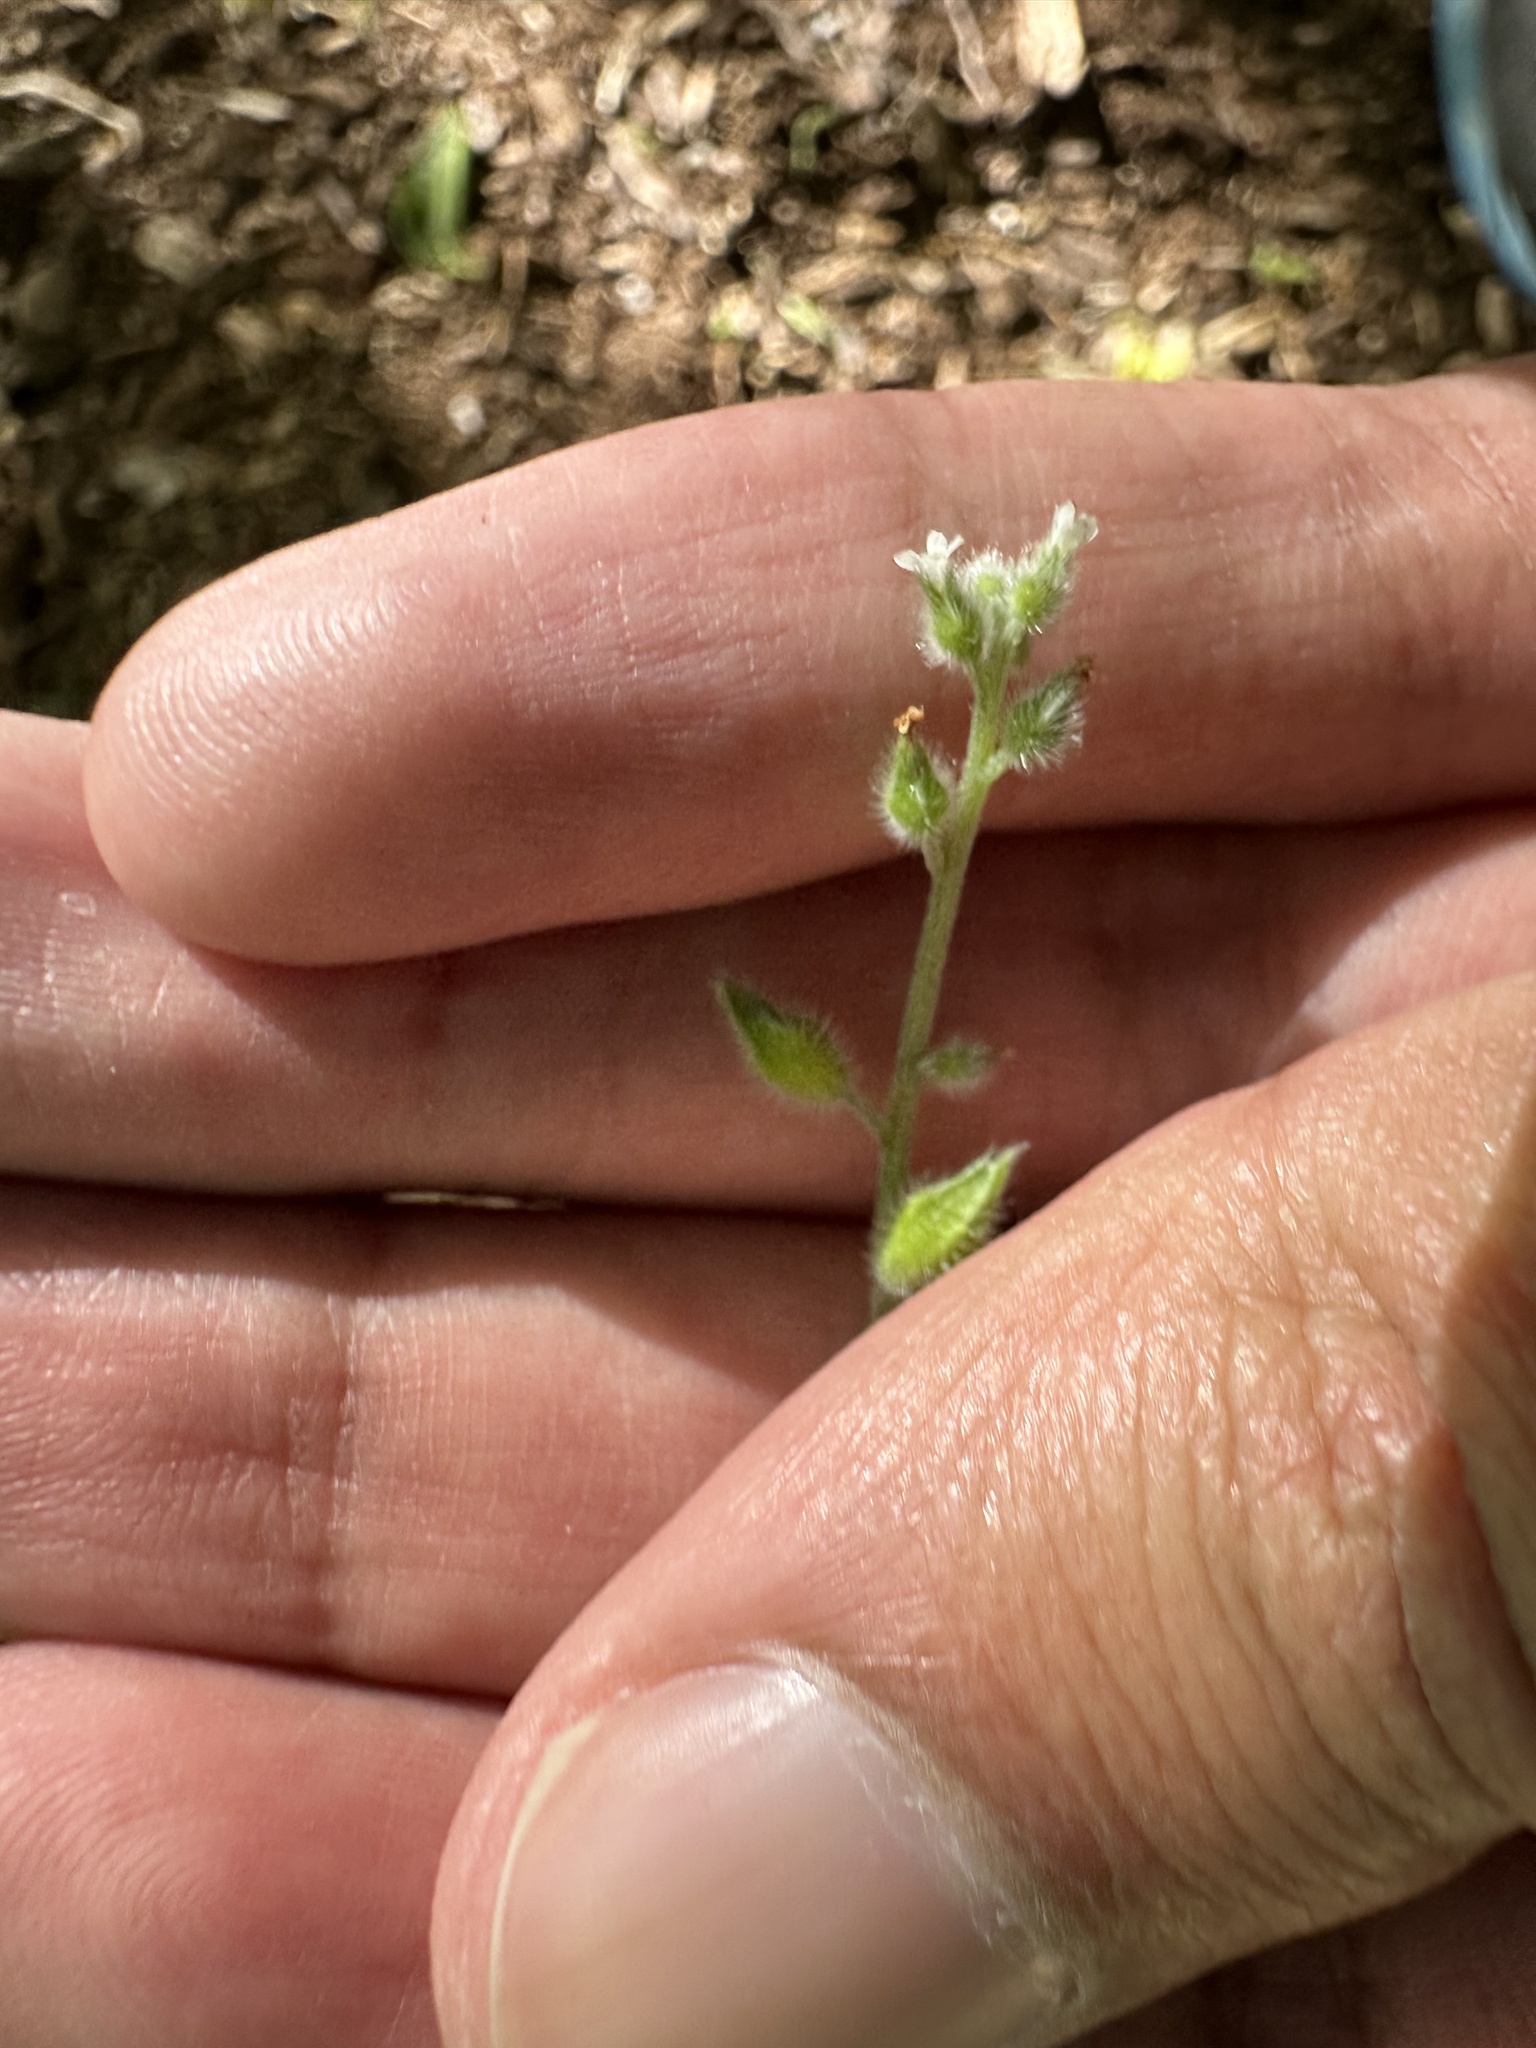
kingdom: Plantae
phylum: Tracheophyta
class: Magnoliopsida
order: Boraginales
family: Boraginaceae
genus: Myosotis
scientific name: Myosotis macrosperma
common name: Large-seed forget-me-not
